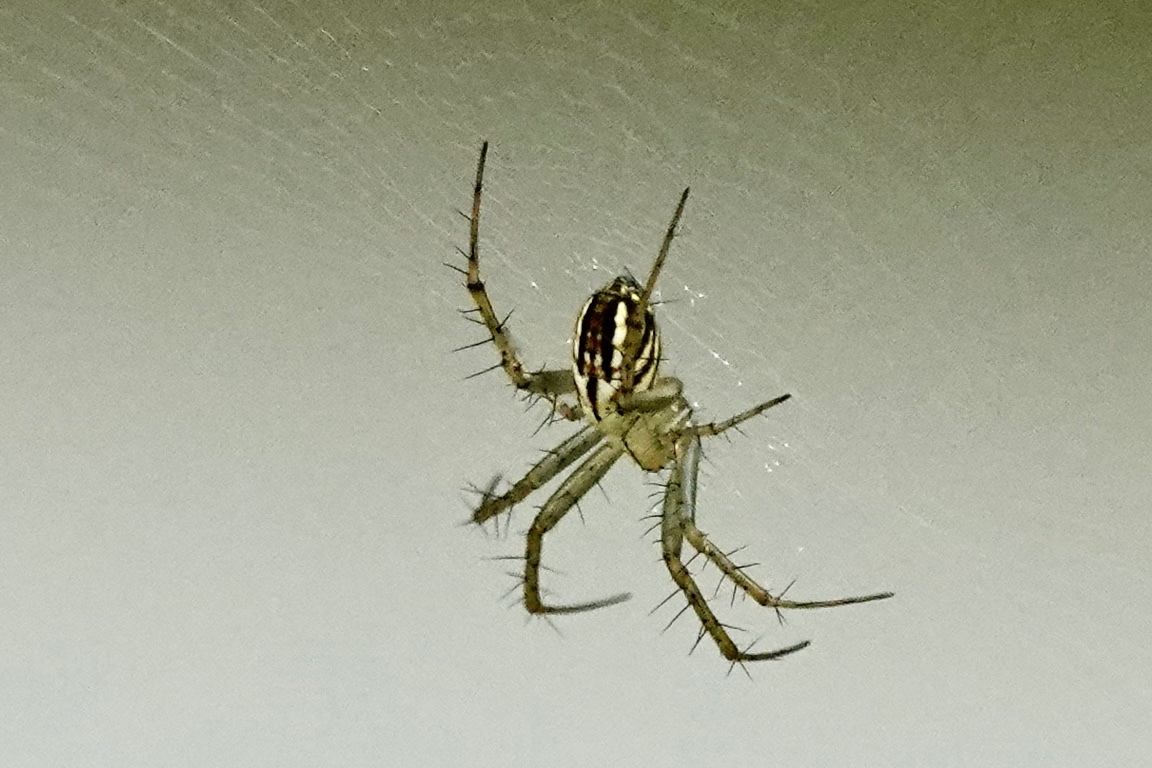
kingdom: Animalia
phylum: Arthropoda
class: Arachnida
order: Araneae
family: Araneidae
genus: Mangora
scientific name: Mangora gibberosa
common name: Lined orbweaver
